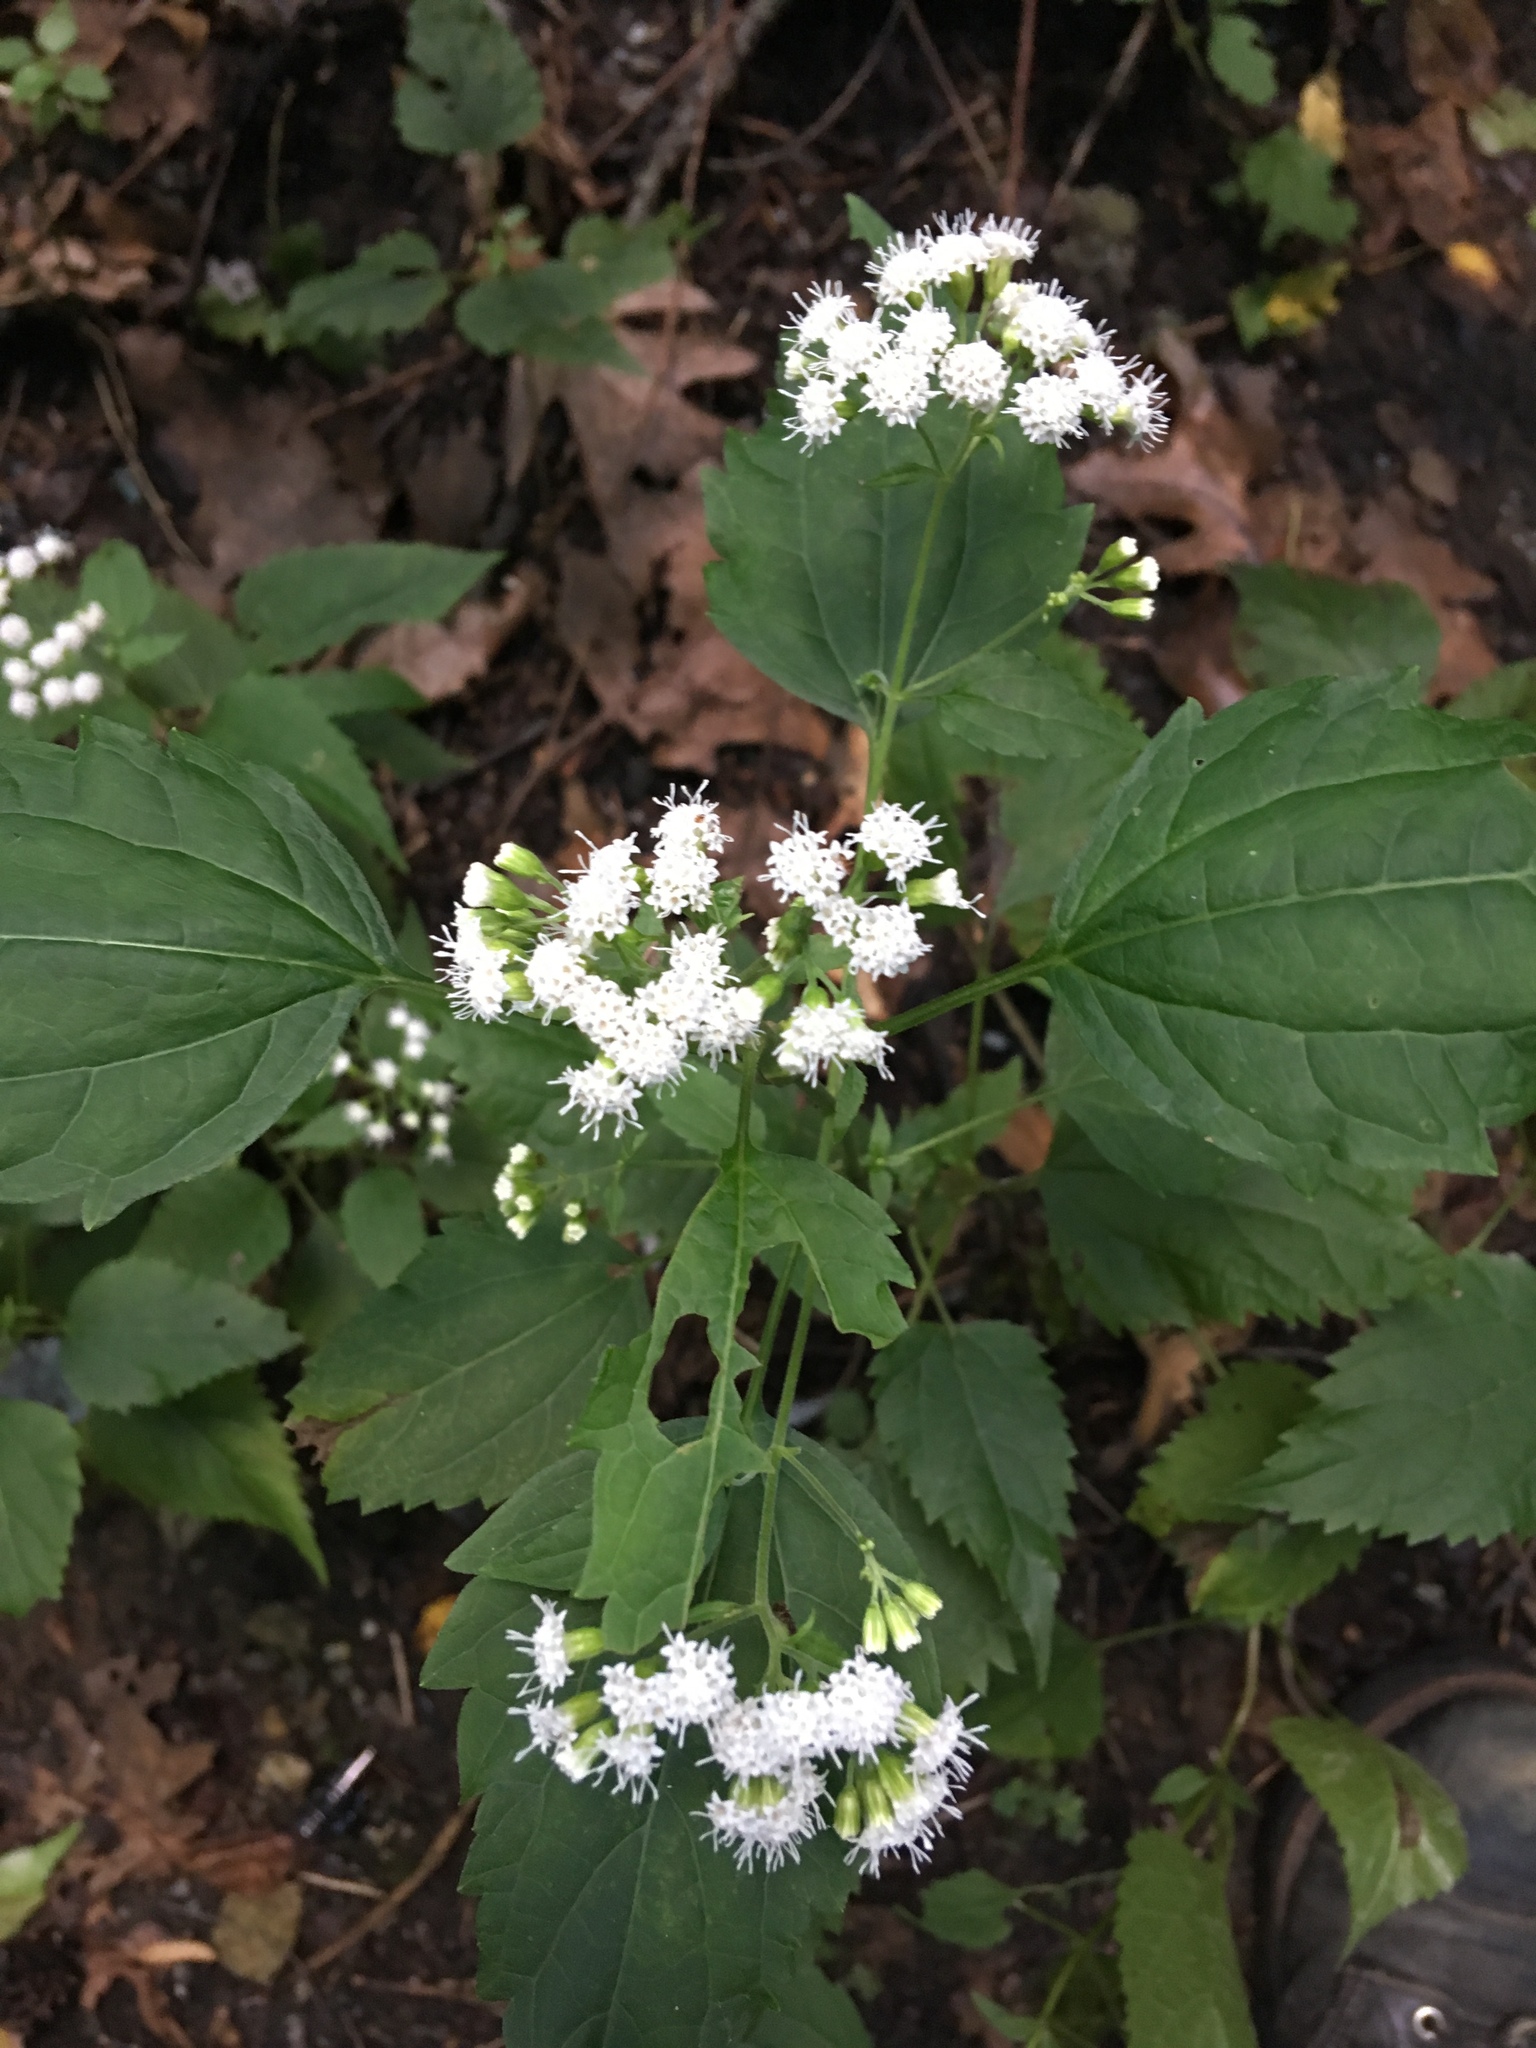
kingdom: Plantae
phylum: Tracheophyta
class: Magnoliopsida
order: Asterales
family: Asteraceae
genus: Ageratina
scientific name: Ageratina altissima
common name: White snakeroot
